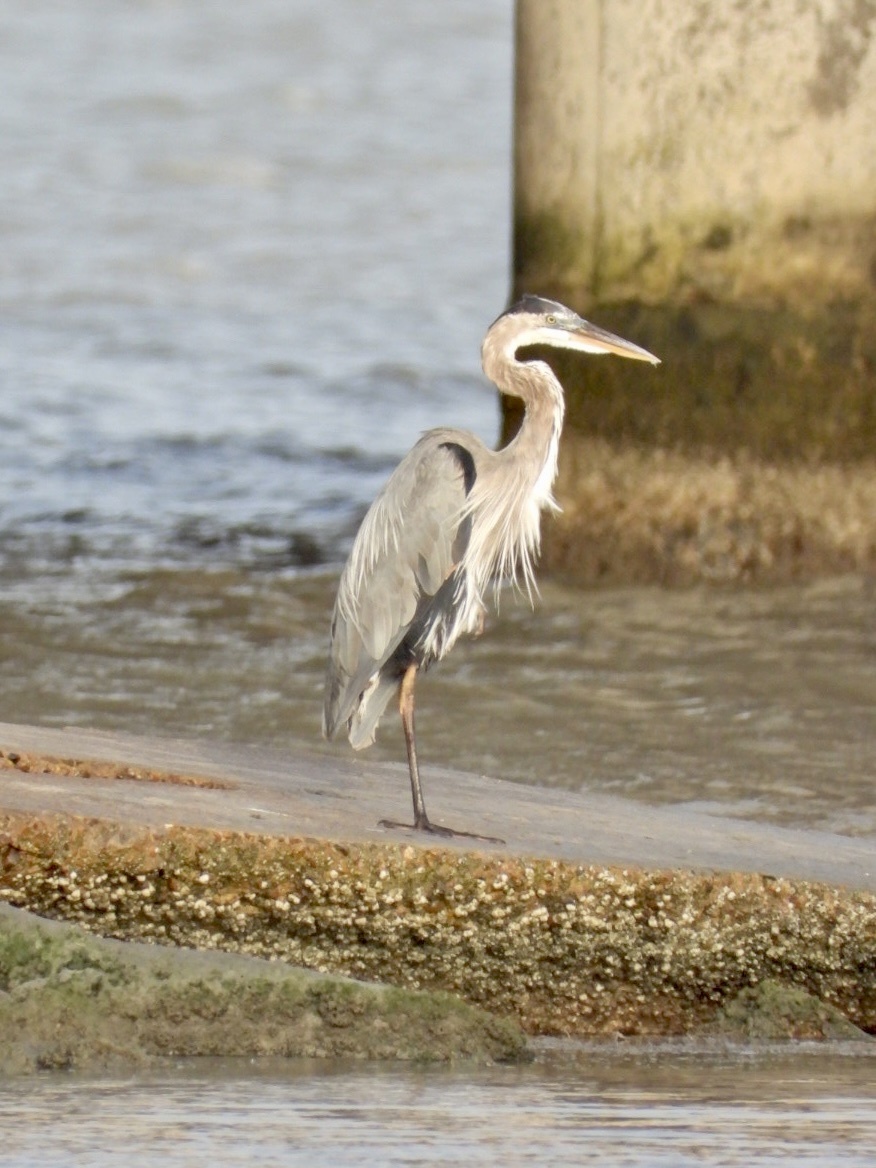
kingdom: Animalia
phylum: Chordata
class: Aves
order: Pelecaniformes
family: Ardeidae
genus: Ardea
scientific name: Ardea herodias
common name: Great blue heron
